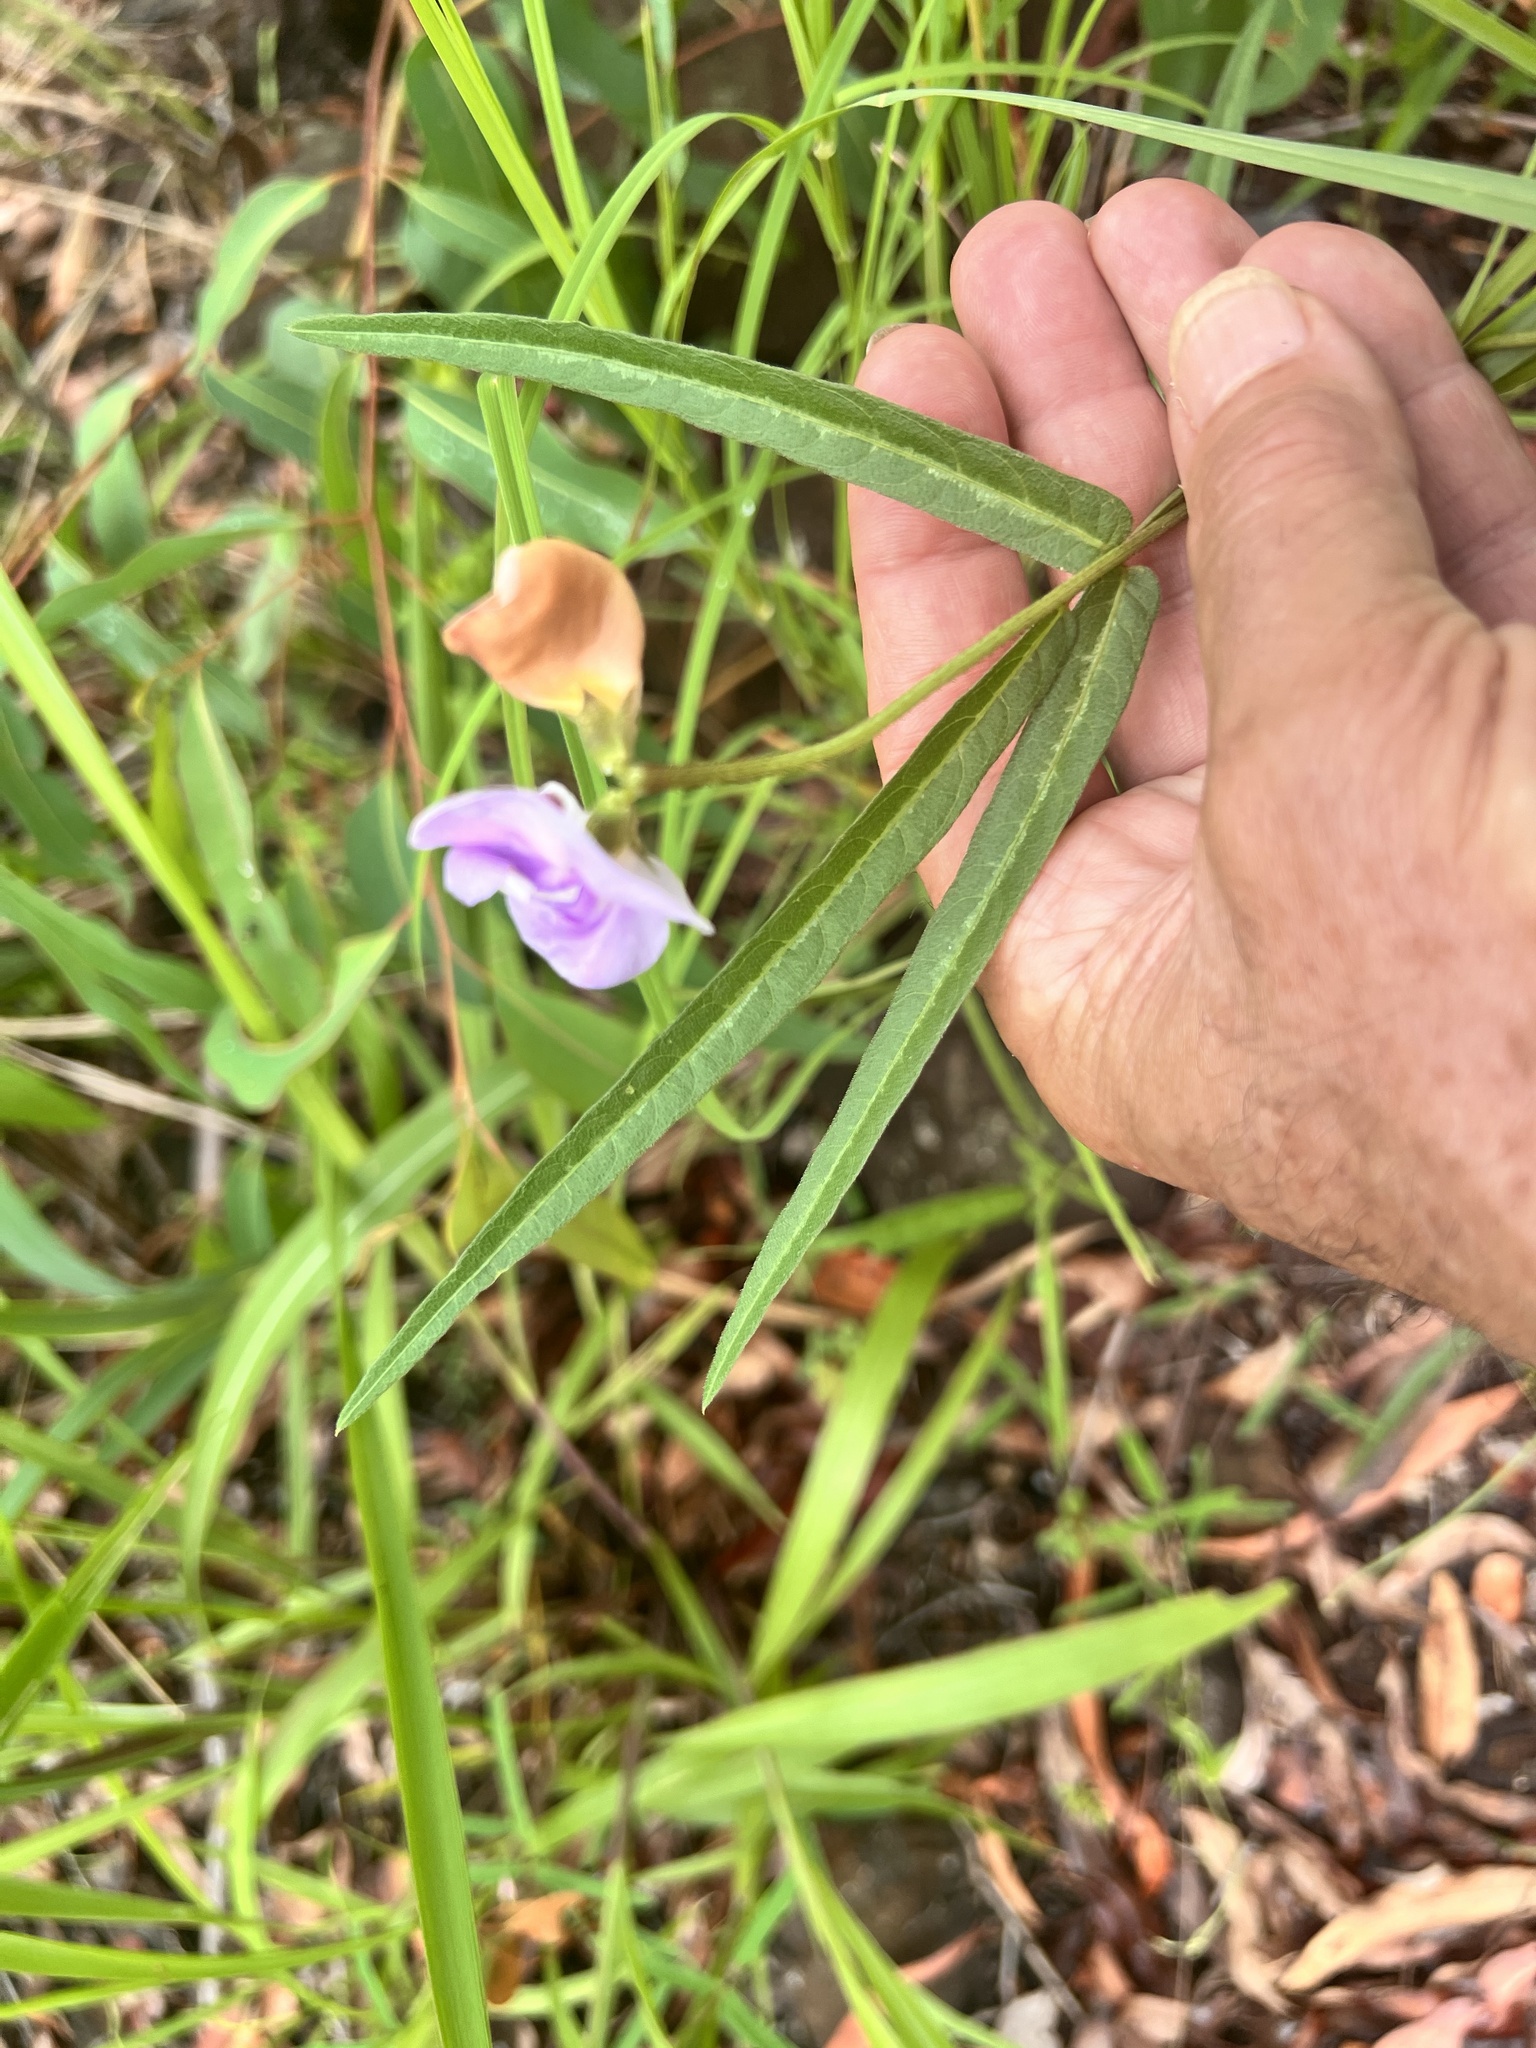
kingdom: Plantae
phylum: Tracheophyta
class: Magnoliopsida
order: Fabales
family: Fabaceae
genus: Vigna
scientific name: Vigna vexillata
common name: Zombi pea
